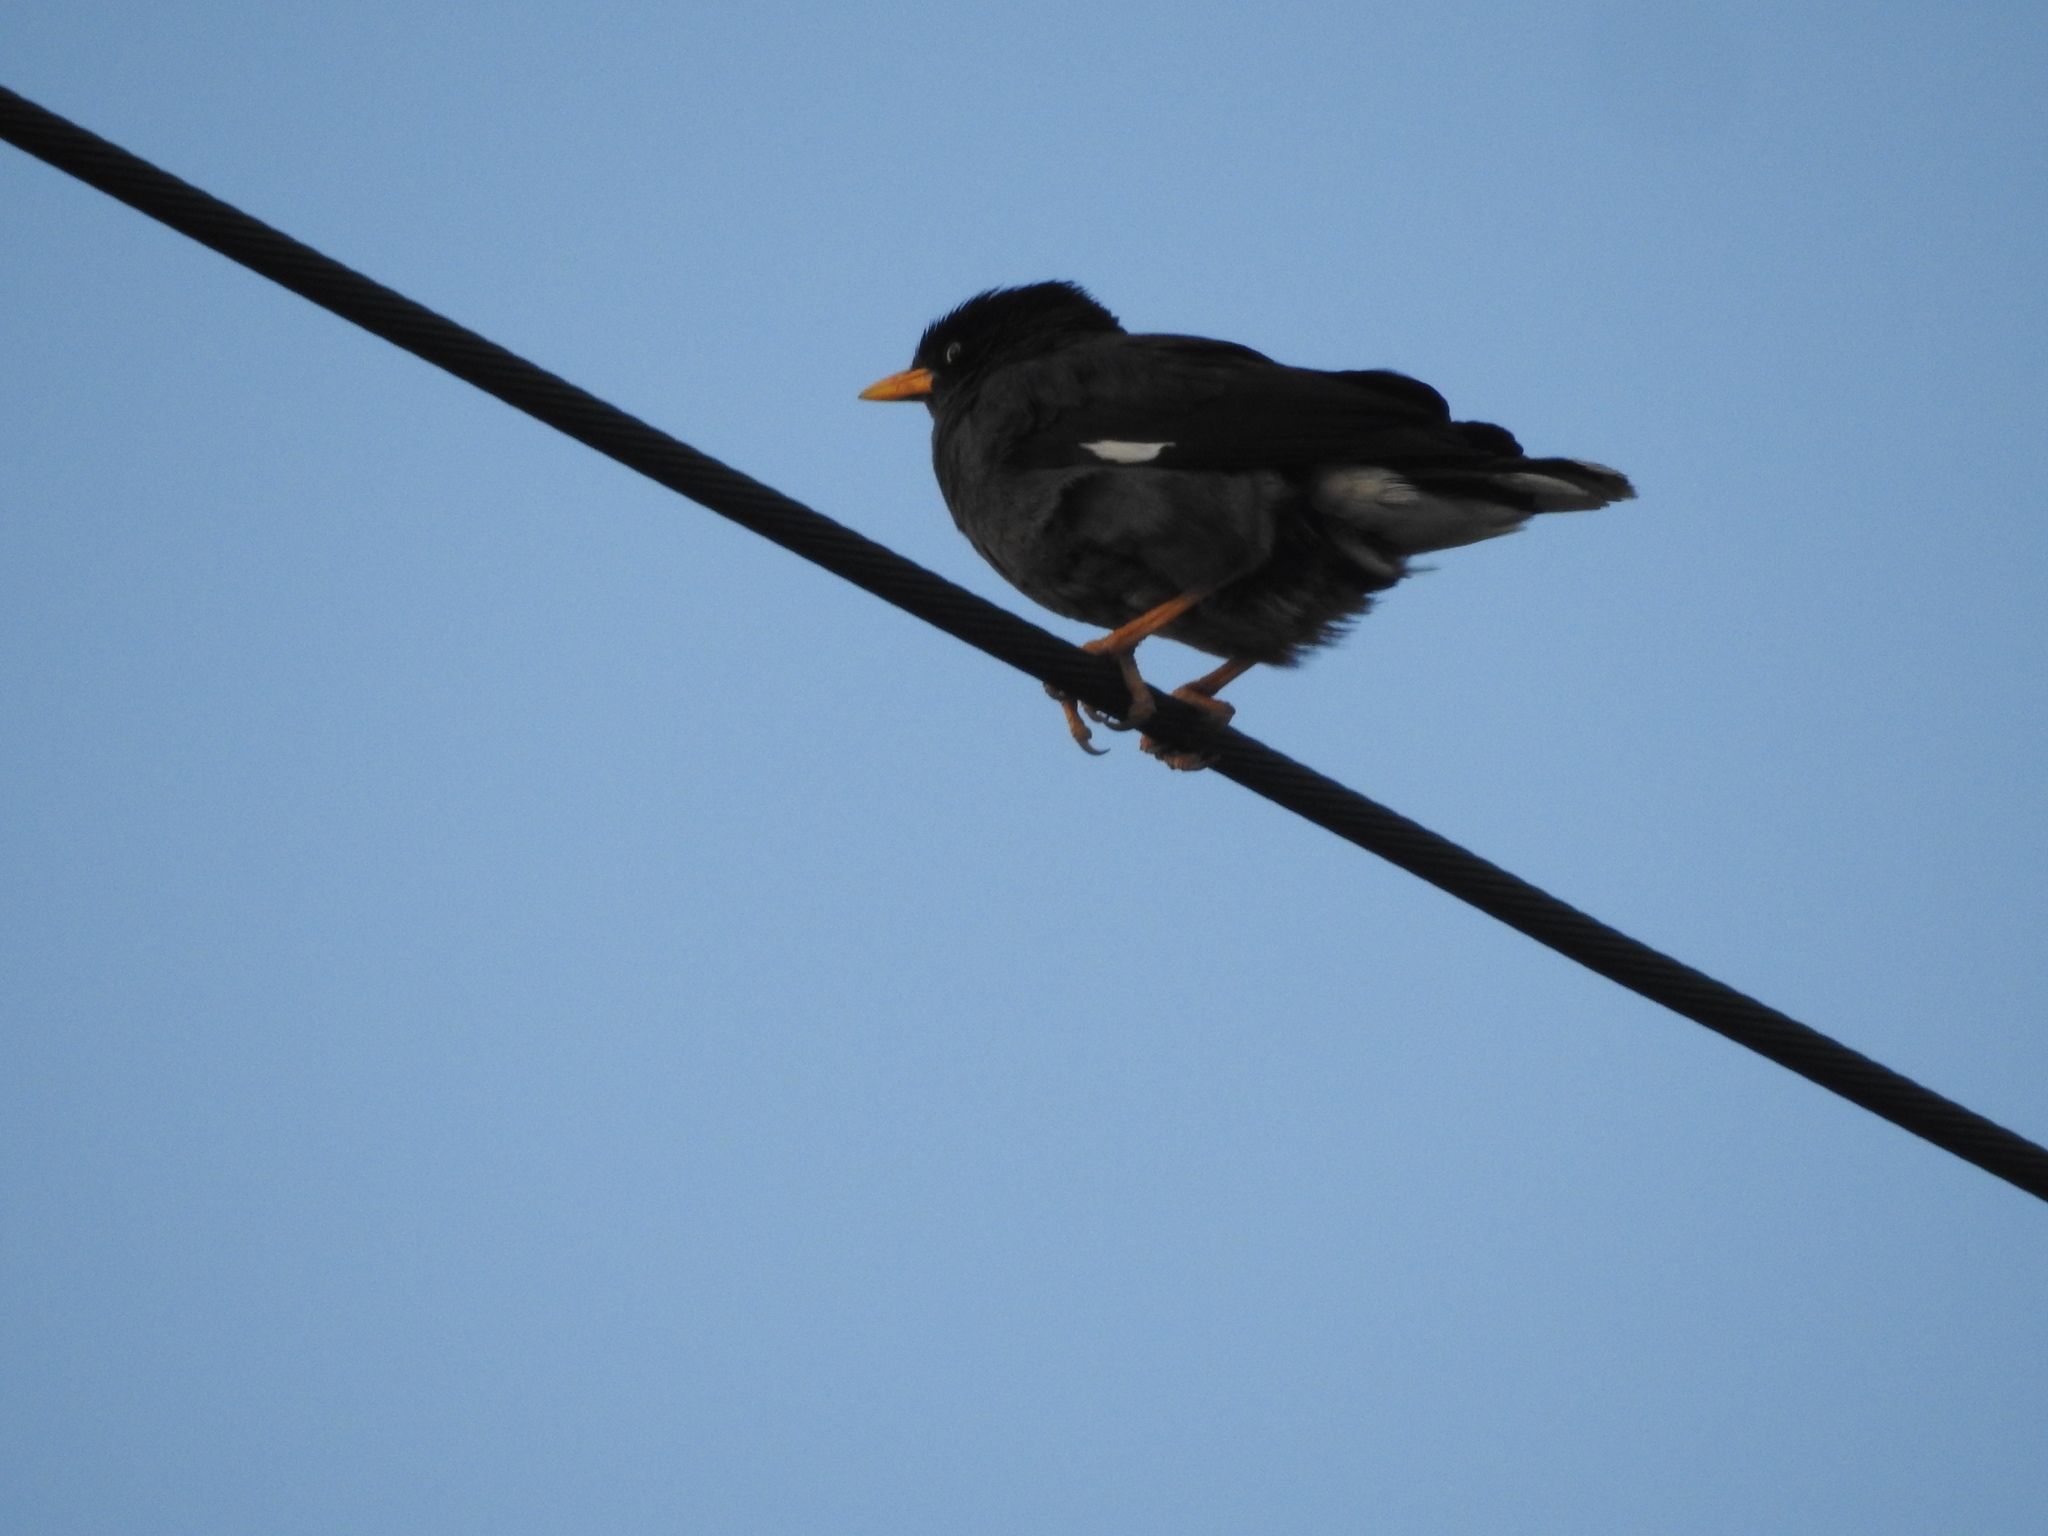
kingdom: Animalia
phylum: Chordata
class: Aves
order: Passeriformes
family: Sturnidae
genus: Acridotheres
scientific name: Acridotheres javanicus
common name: Javan myna
